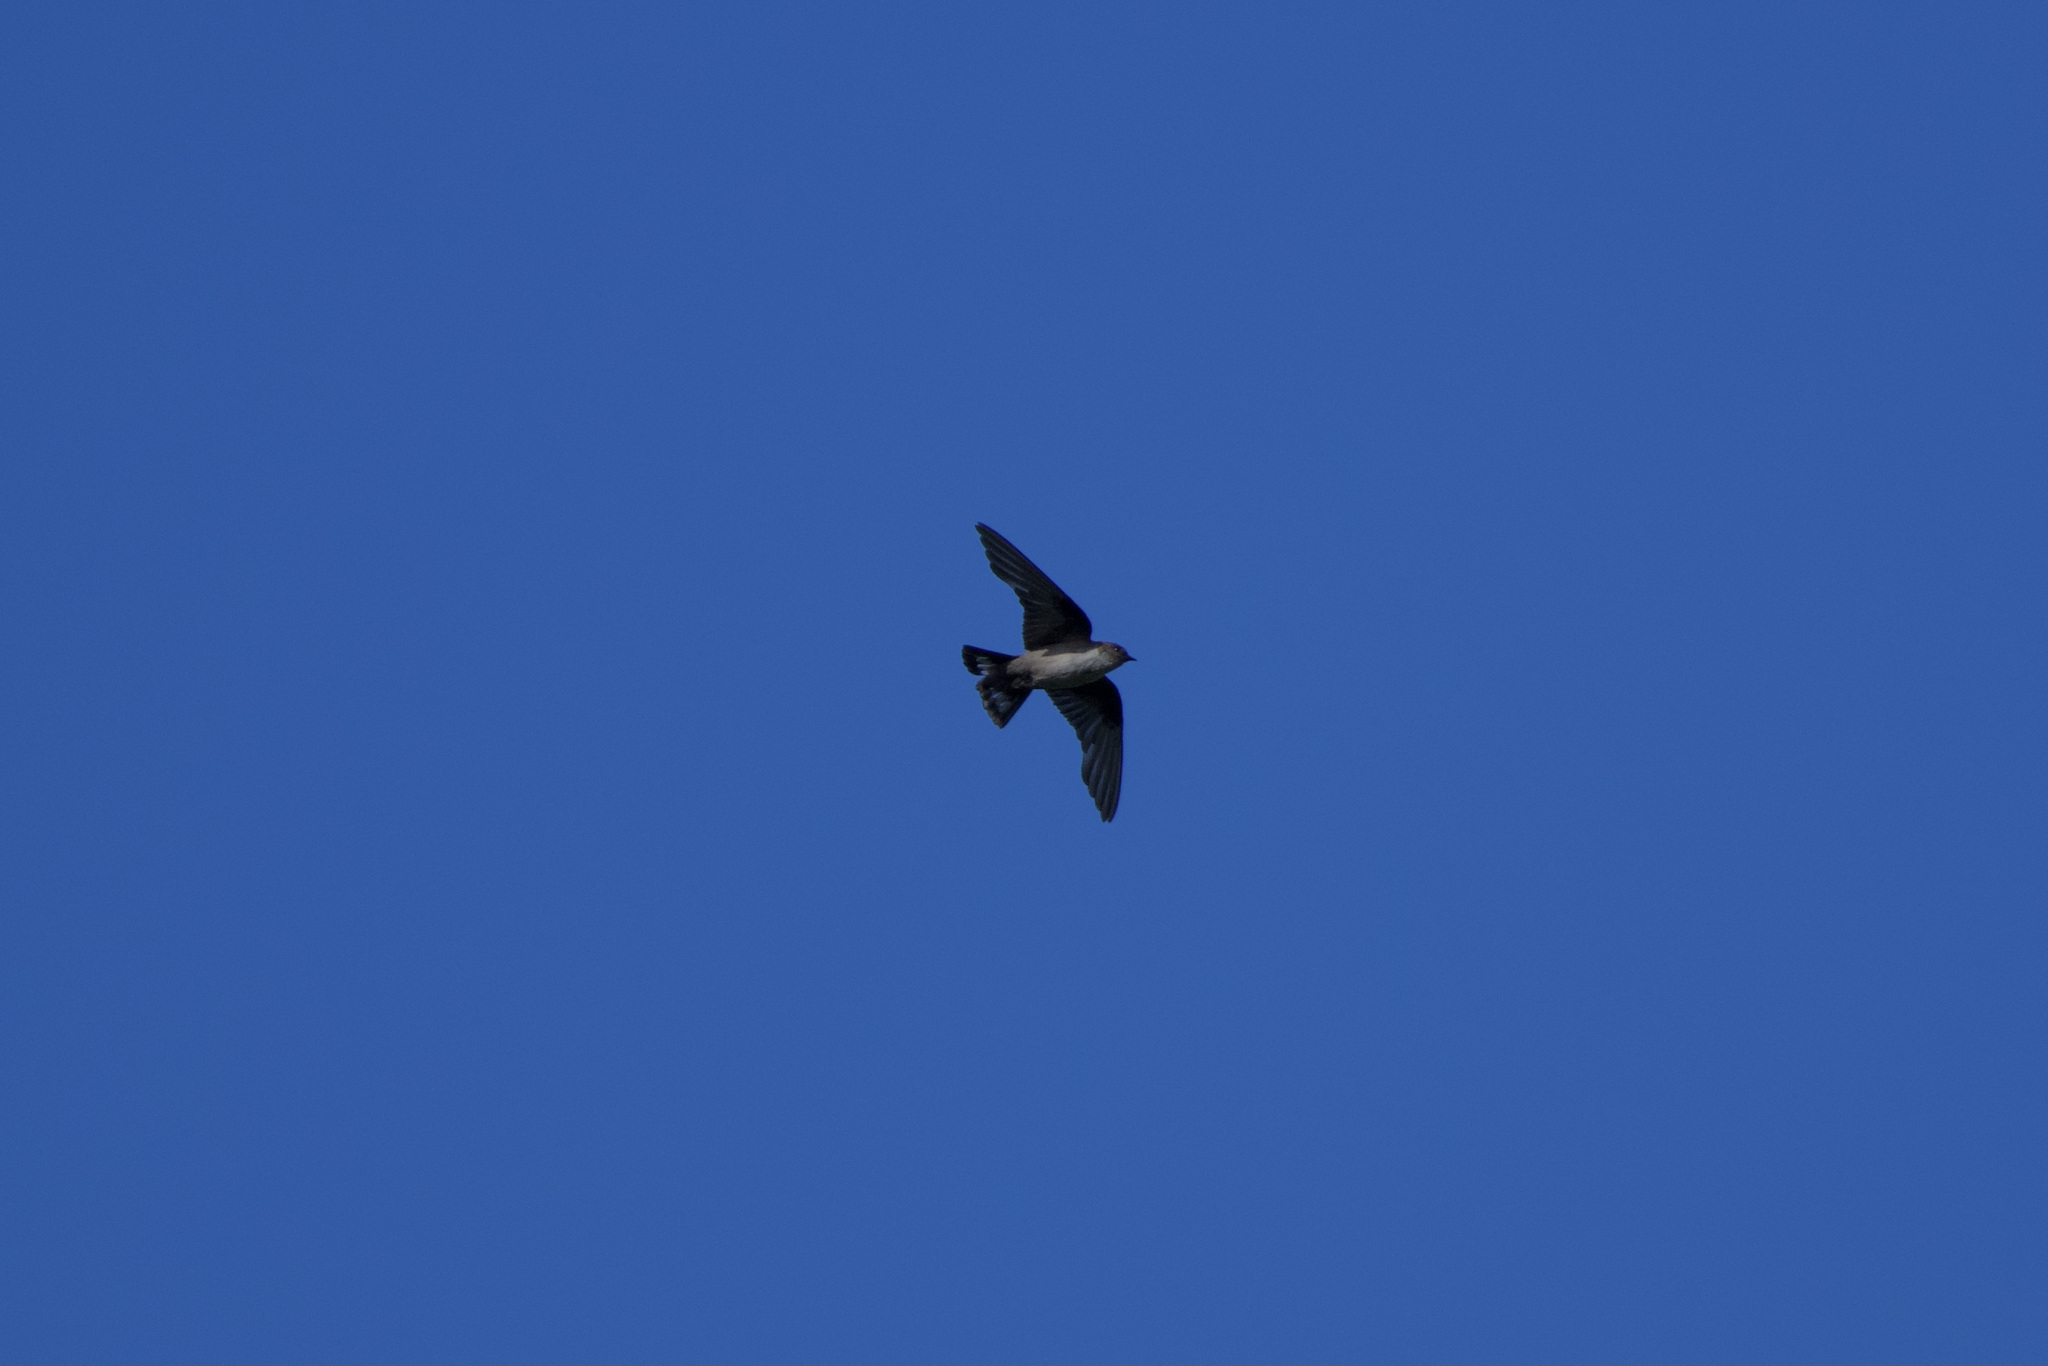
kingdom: Animalia
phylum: Chordata
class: Aves
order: Passeriformes
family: Hirundinidae
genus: Ptyonoprogne
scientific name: Ptyonoprogne rupestris
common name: Eurasian crag martin
